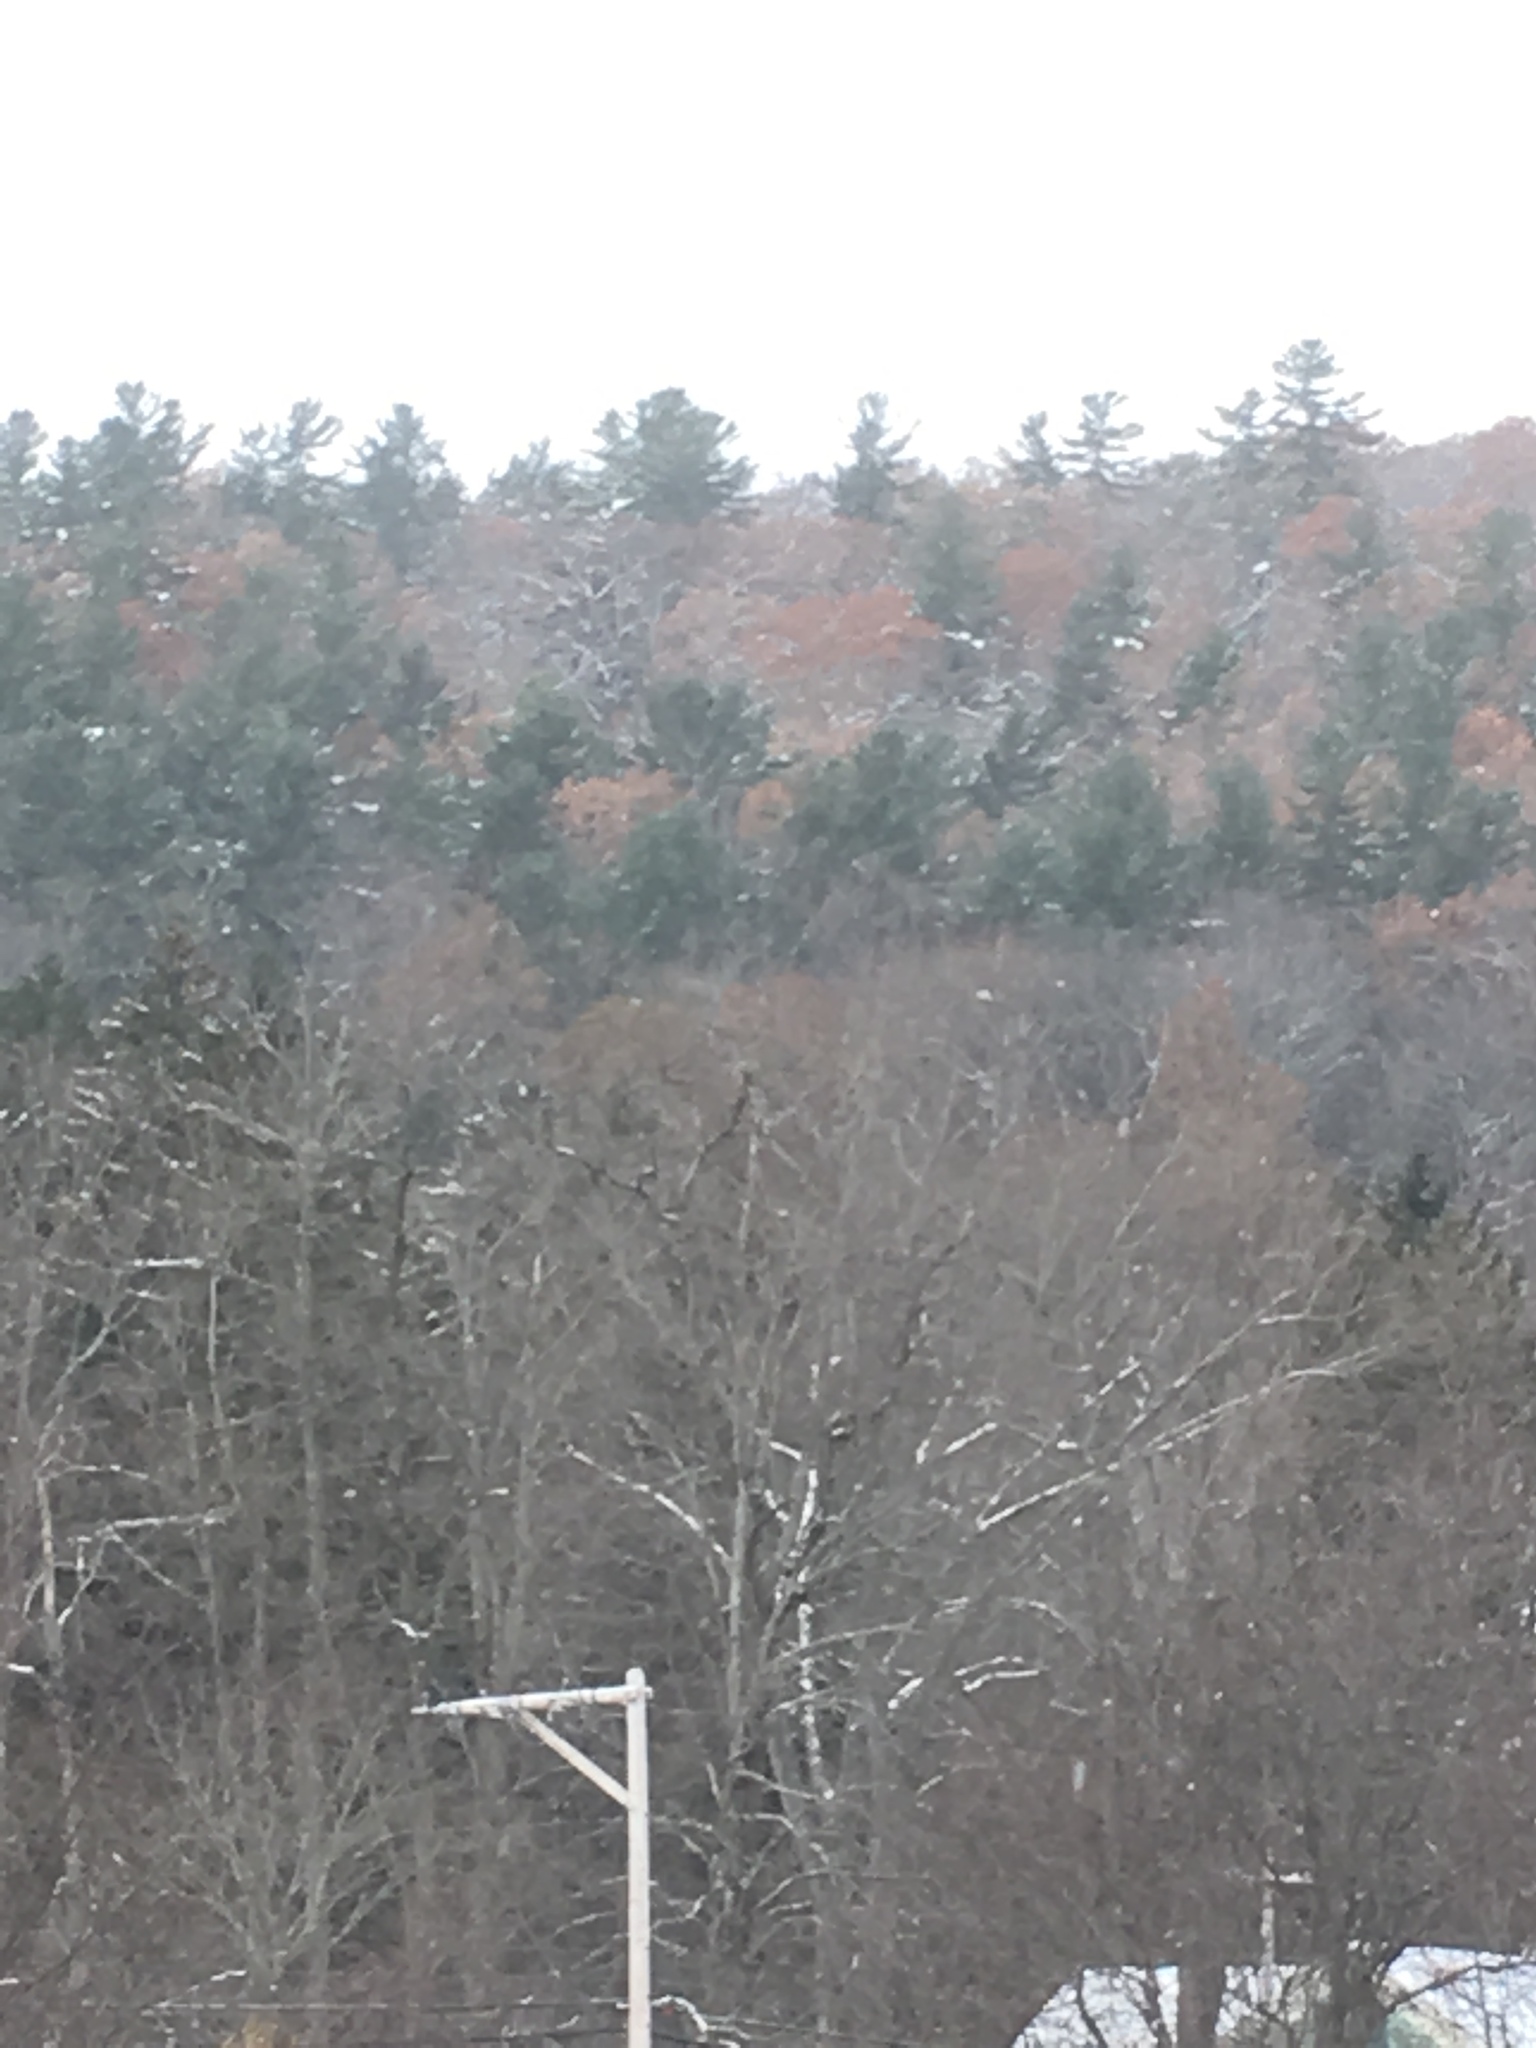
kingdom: Plantae
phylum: Tracheophyta
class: Pinopsida
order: Pinales
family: Pinaceae
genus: Pinus
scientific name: Pinus strobus
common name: Weymouth pine
